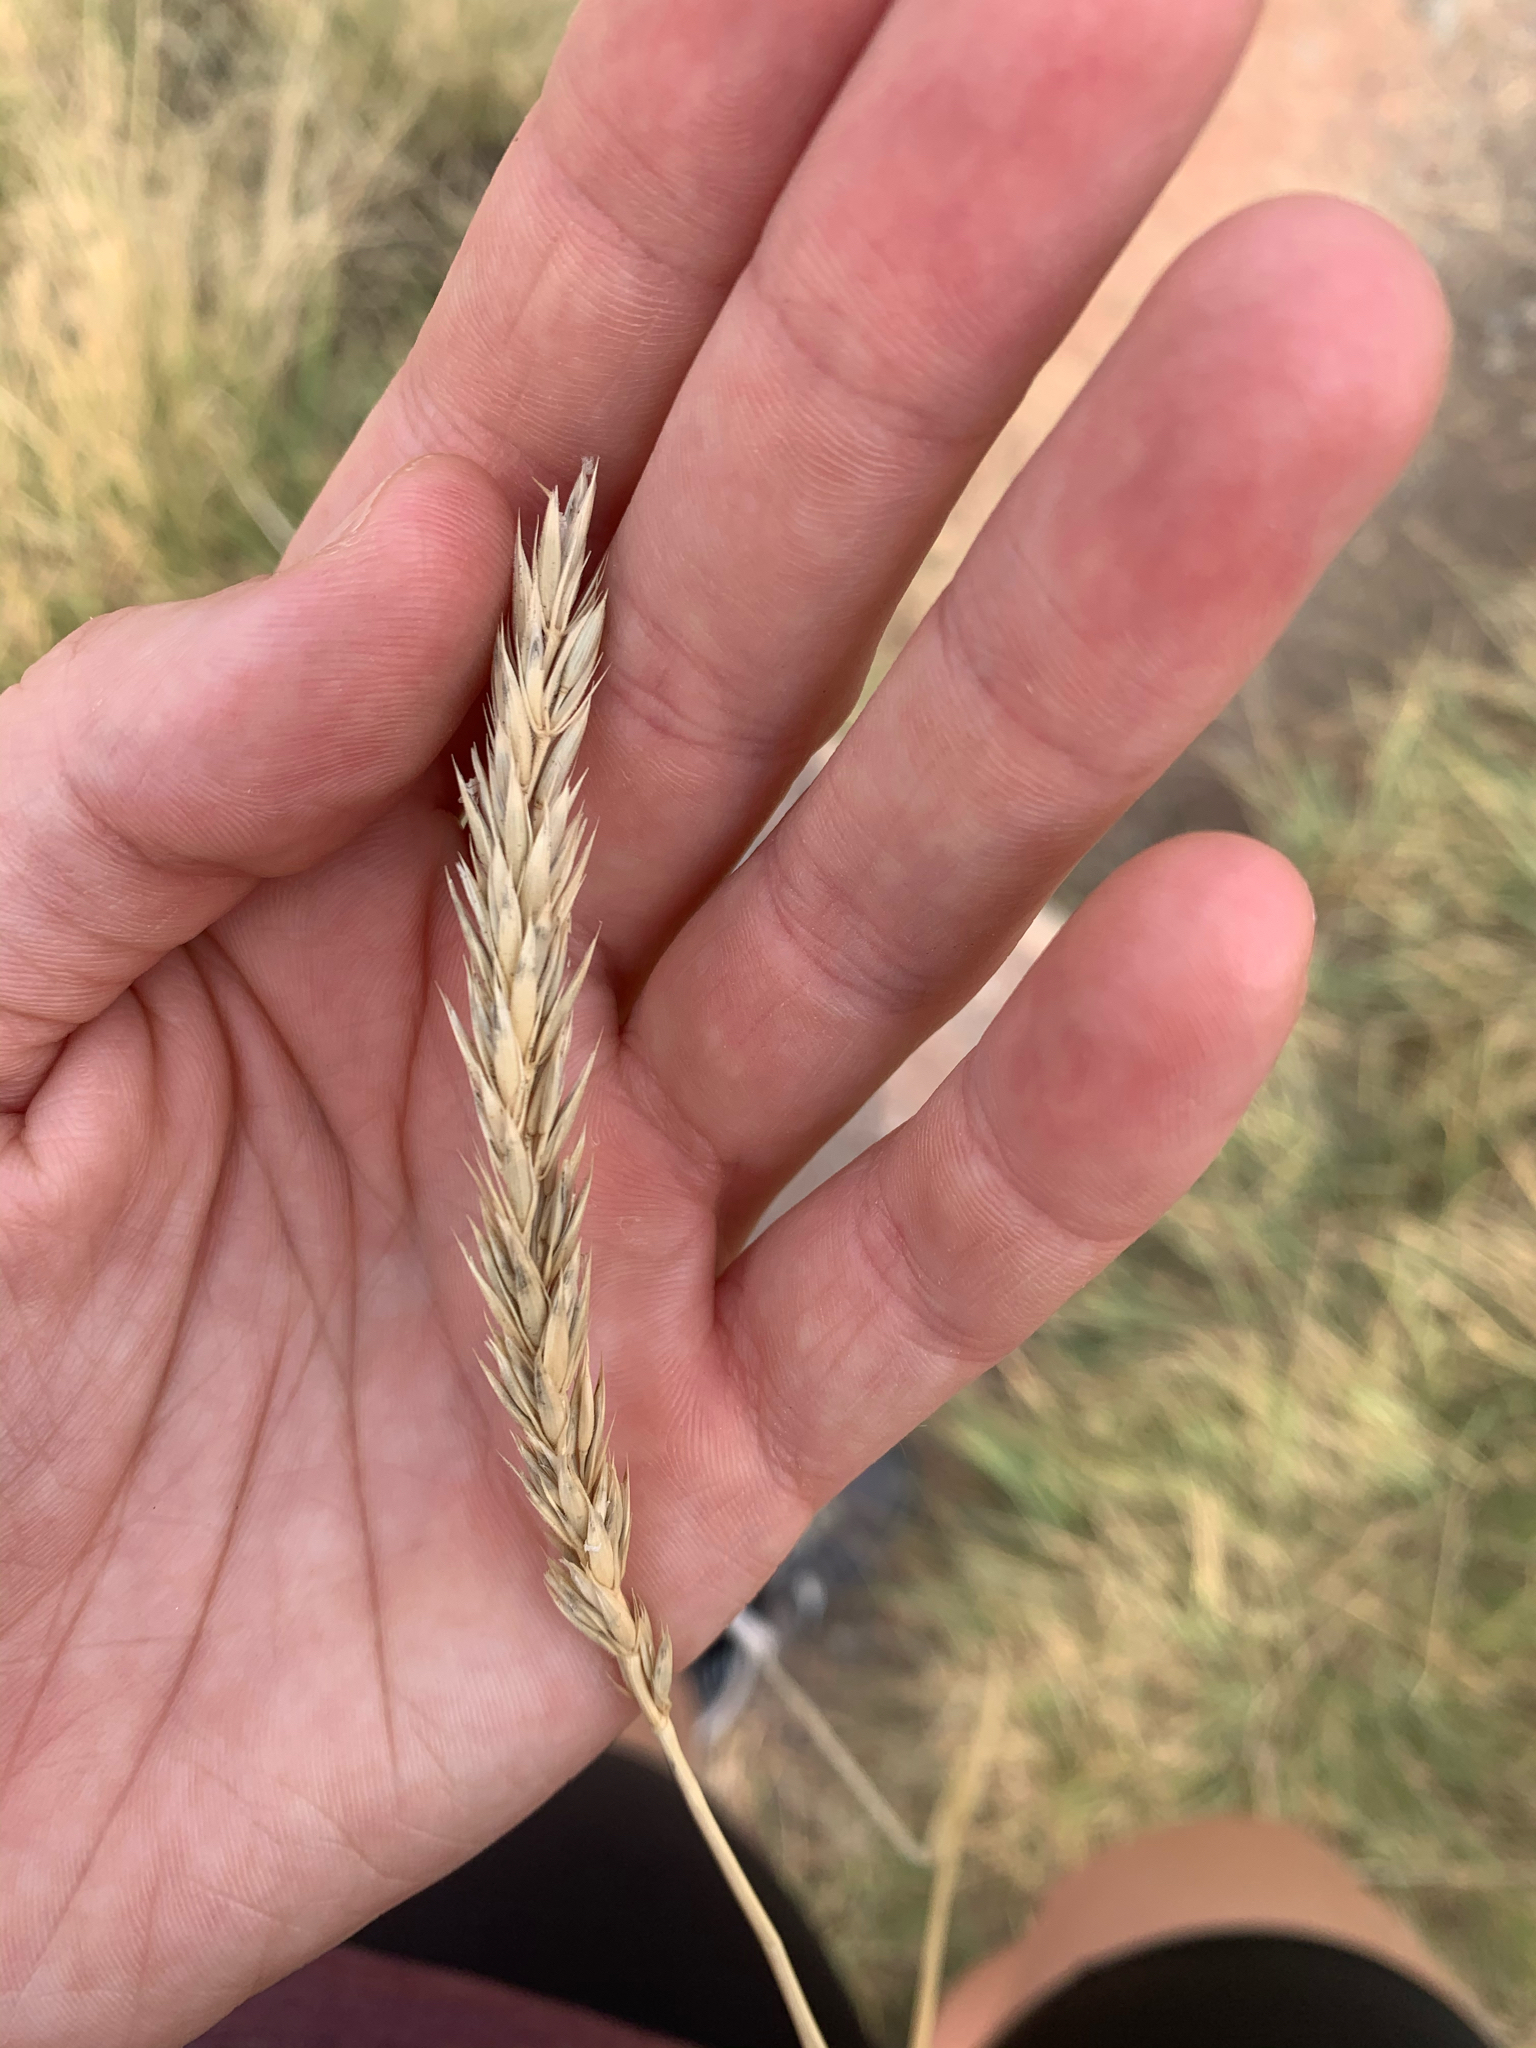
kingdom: Plantae
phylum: Tracheophyta
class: Liliopsida
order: Poales
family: Poaceae
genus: Psathyrostachys
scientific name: Psathyrostachys juncea
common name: Russian wildrye
